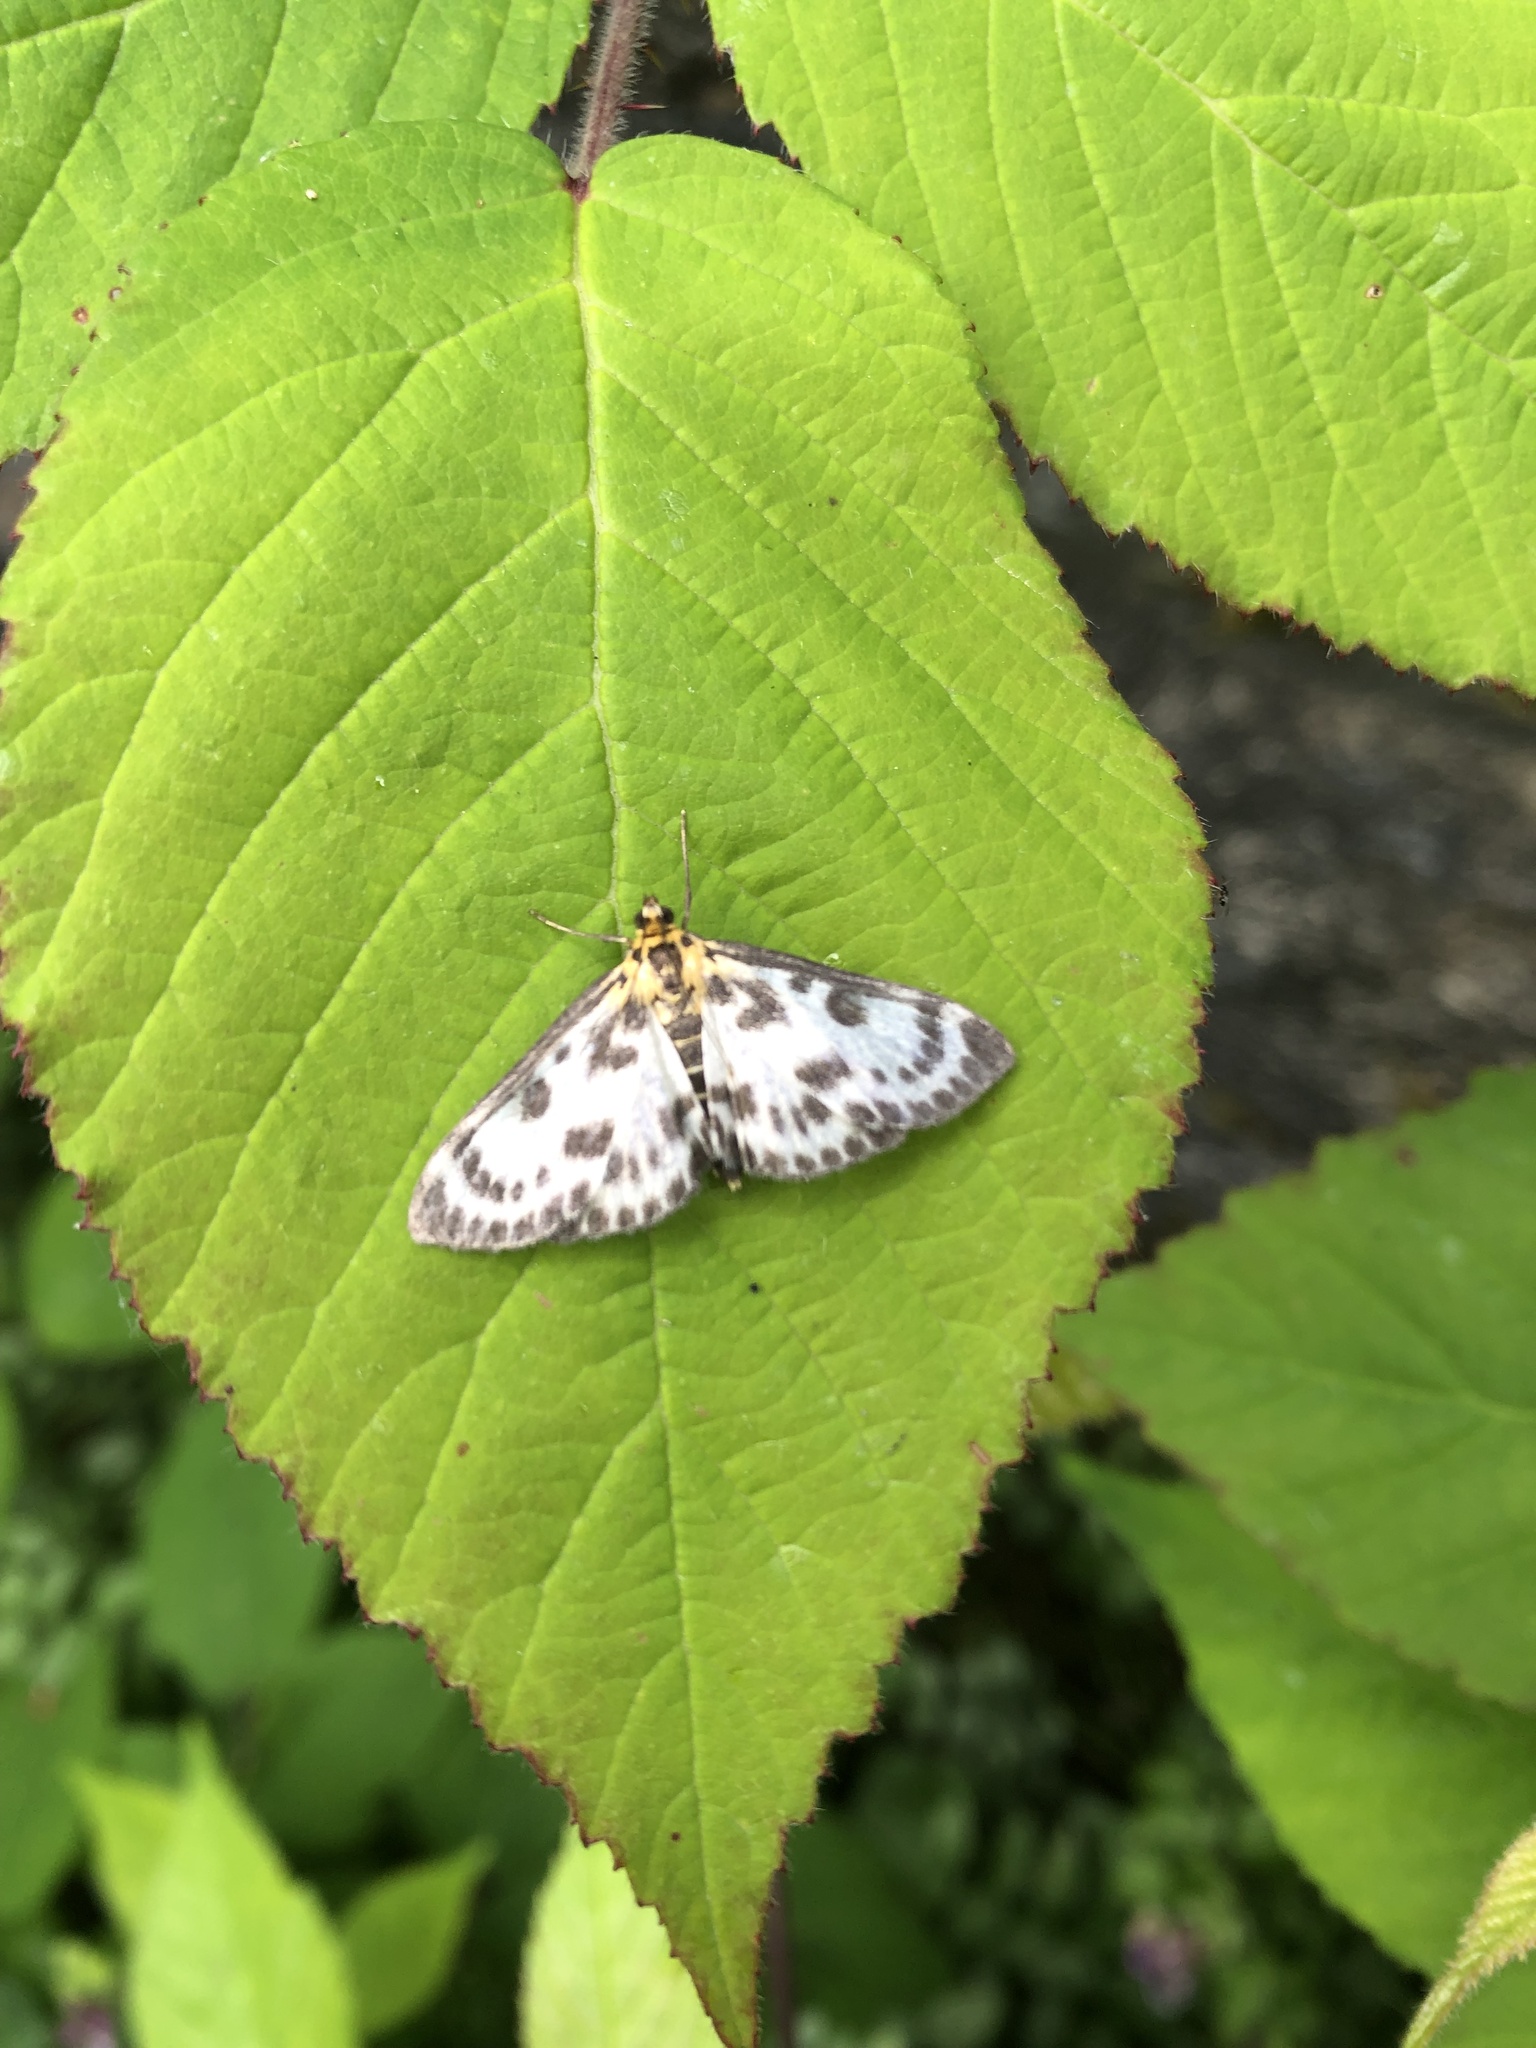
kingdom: Animalia
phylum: Arthropoda
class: Insecta
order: Lepidoptera
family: Crambidae
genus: Anania
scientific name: Anania hortulata
